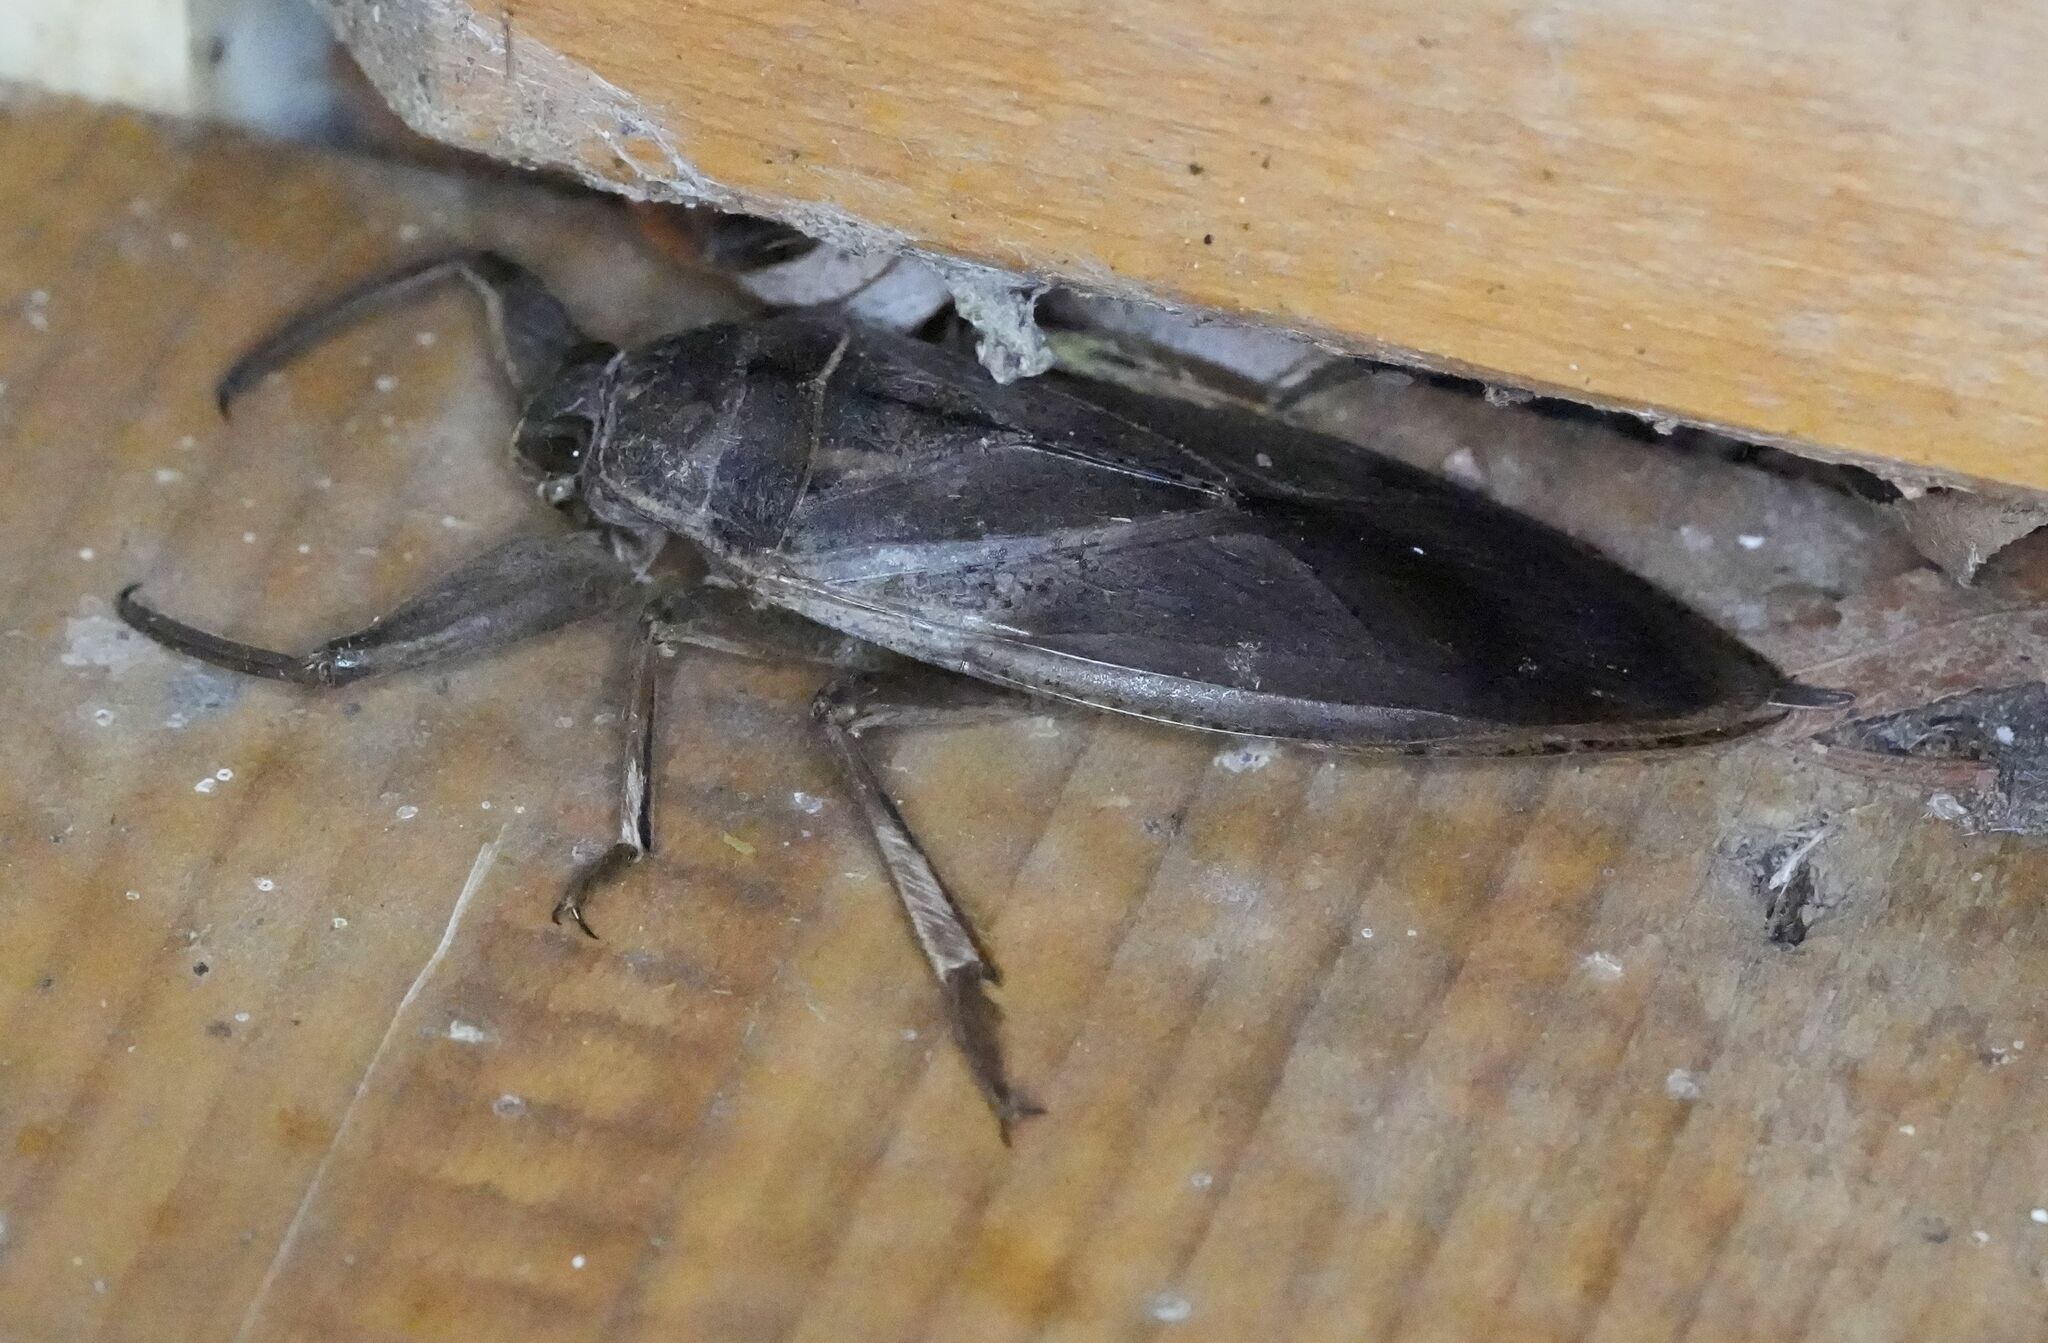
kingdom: Animalia
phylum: Arthropoda
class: Insecta
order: Hemiptera
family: Belostomatidae
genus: Lethocerus
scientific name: Lethocerus americanus
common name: Giant water bug
